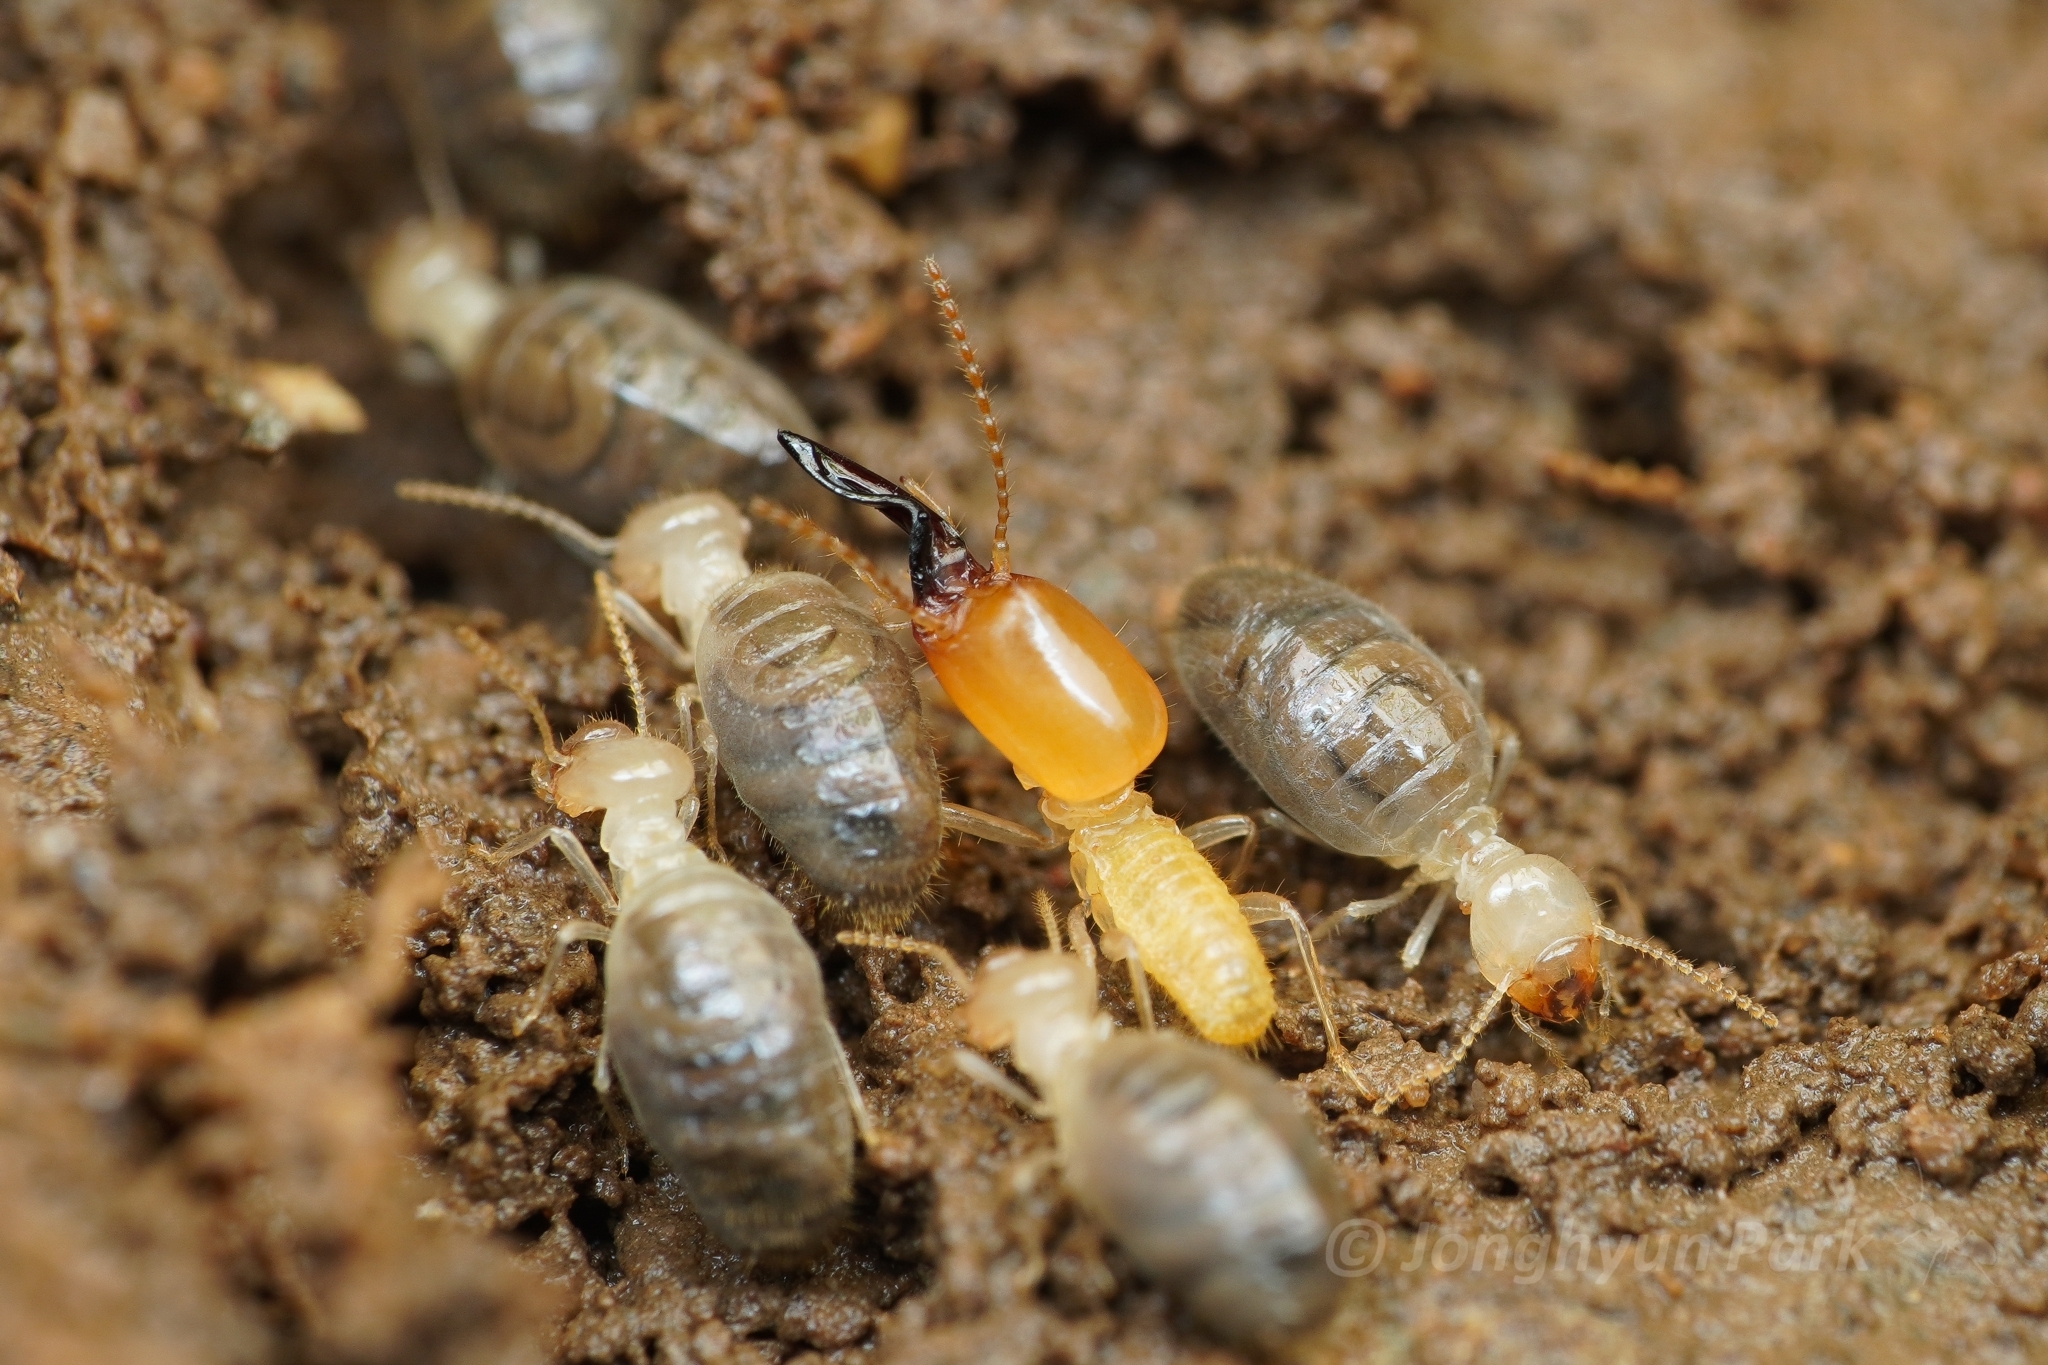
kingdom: Animalia
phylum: Arthropoda
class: Insecta
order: Blattodea
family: Termitidae
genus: Dicuspiditermes
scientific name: Dicuspiditermes laetus
